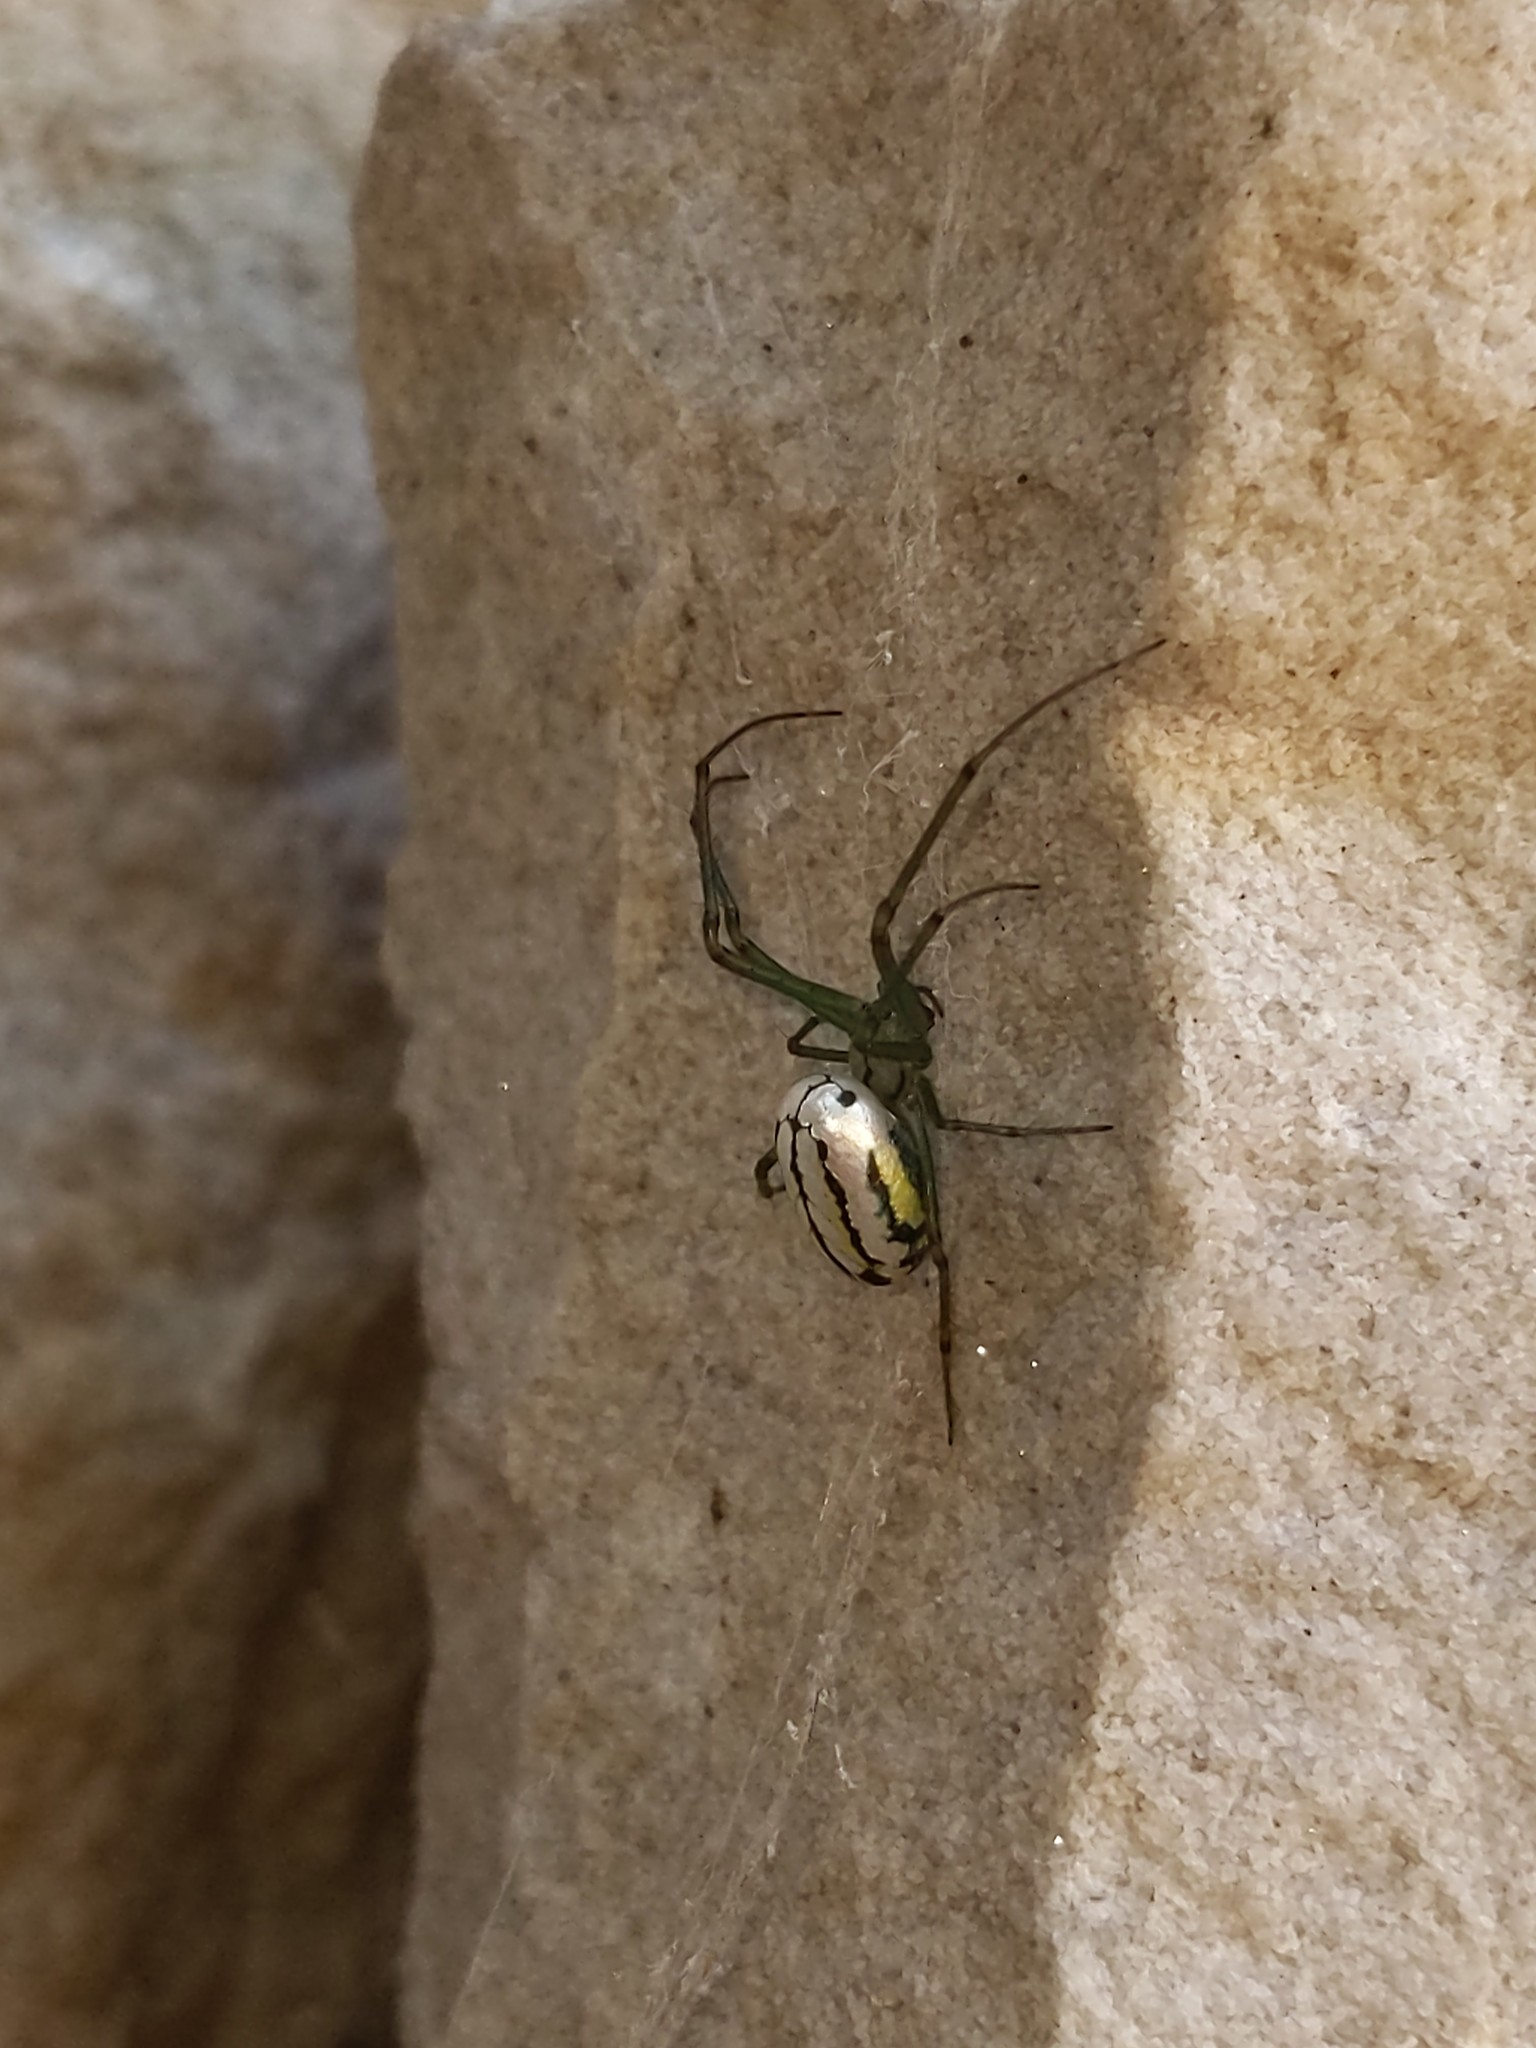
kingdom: Animalia
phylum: Arthropoda
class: Arachnida
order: Araneae
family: Tetragnathidae
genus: Leucauge
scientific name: Leucauge venusta
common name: Longjawed orb weavers
